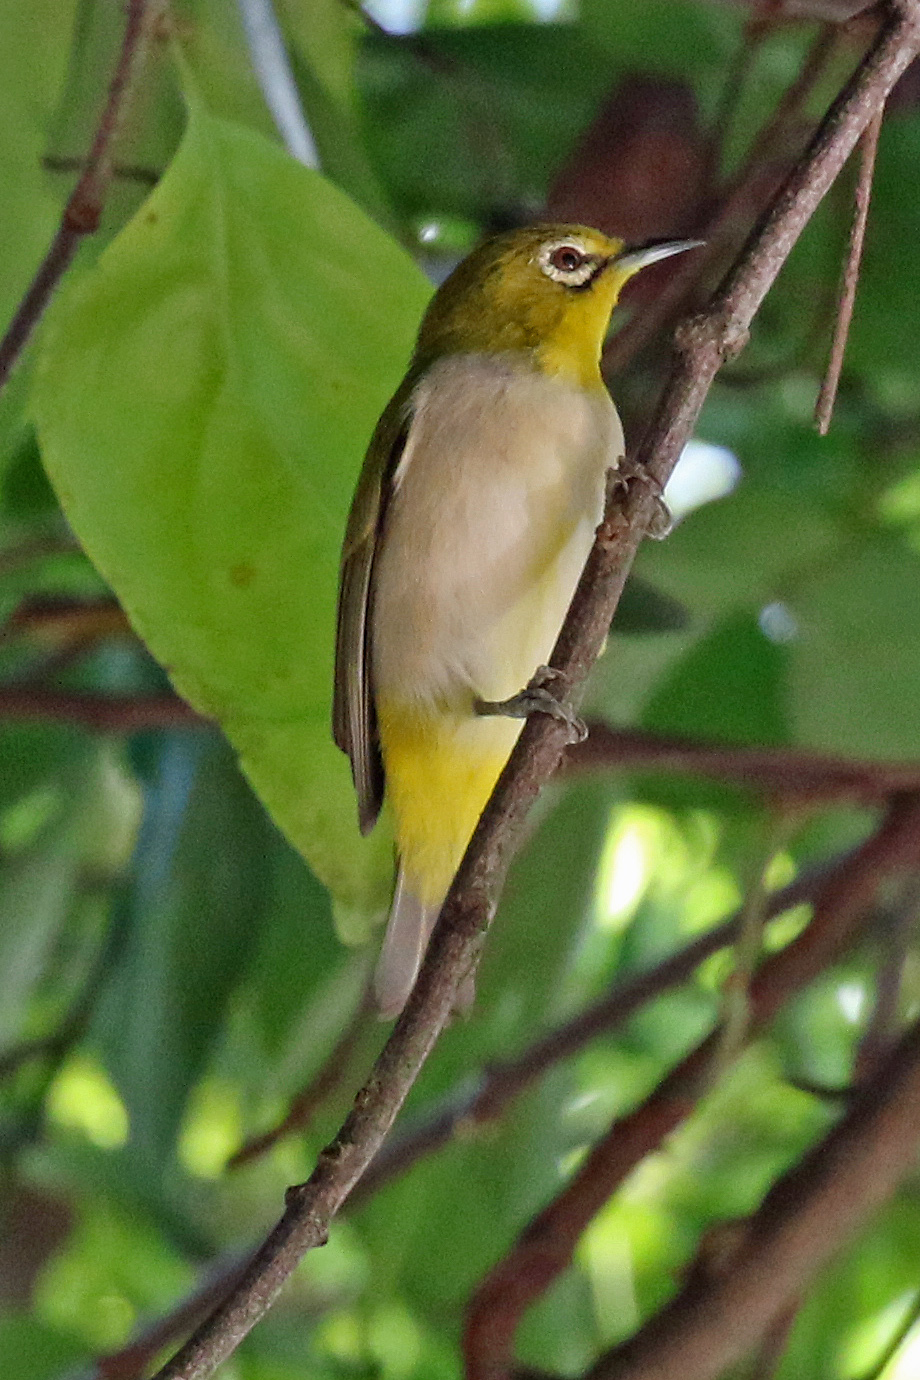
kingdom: Animalia
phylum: Chordata
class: Aves
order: Passeriformes
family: Zosteropidae
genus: Zosterops
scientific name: Zosterops simplex
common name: Swinhoe's white-eye
